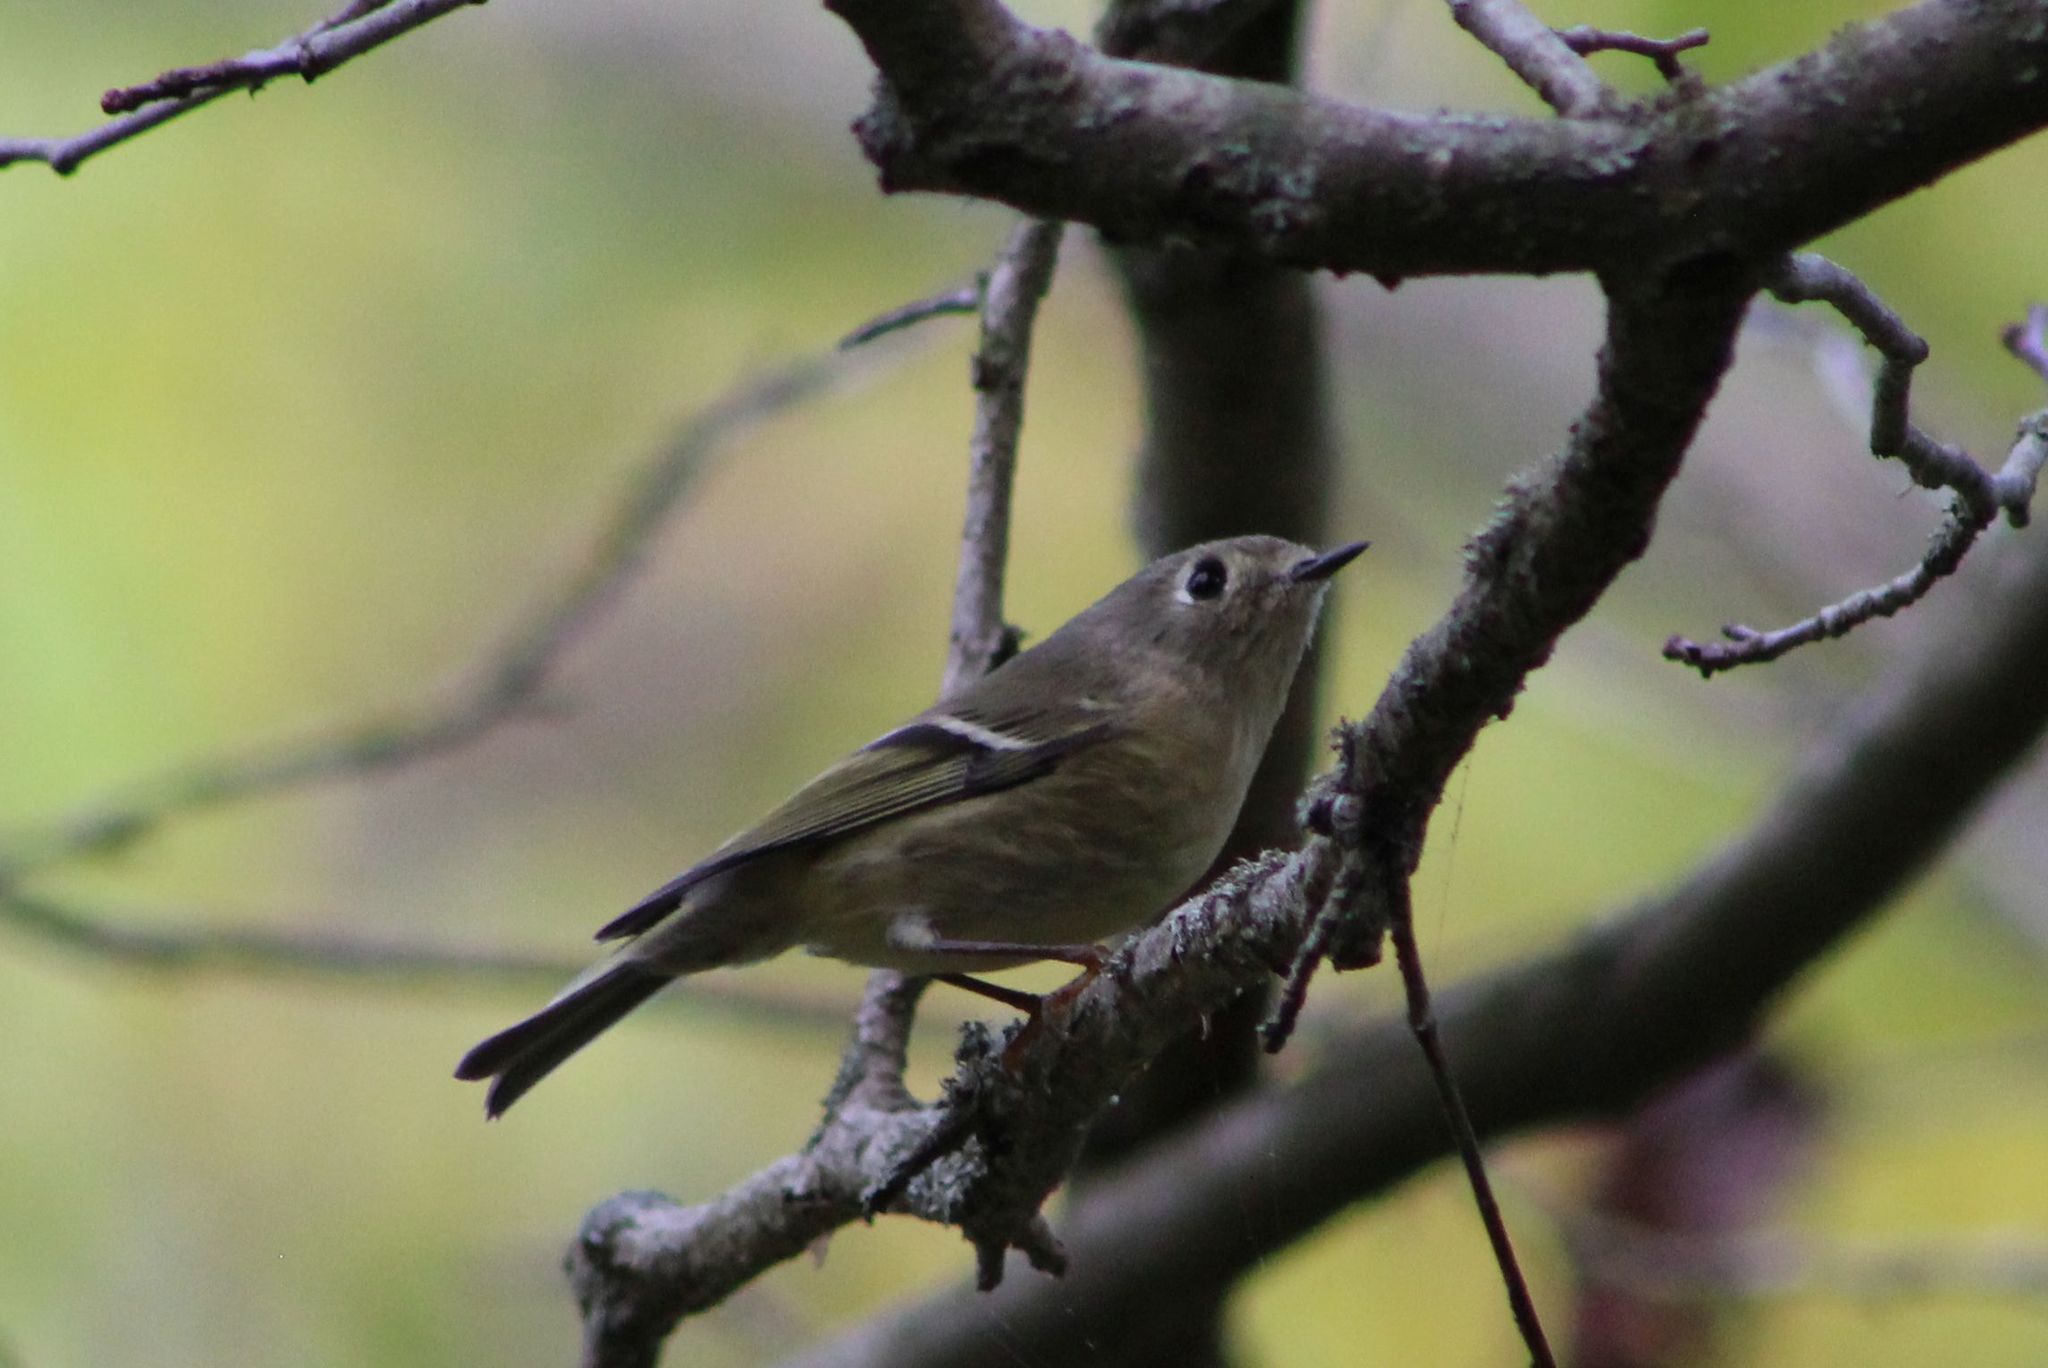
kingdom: Animalia
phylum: Chordata
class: Aves
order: Passeriformes
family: Regulidae
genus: Regulus
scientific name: Regulus calendula
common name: Ruby-crowned kinglet
